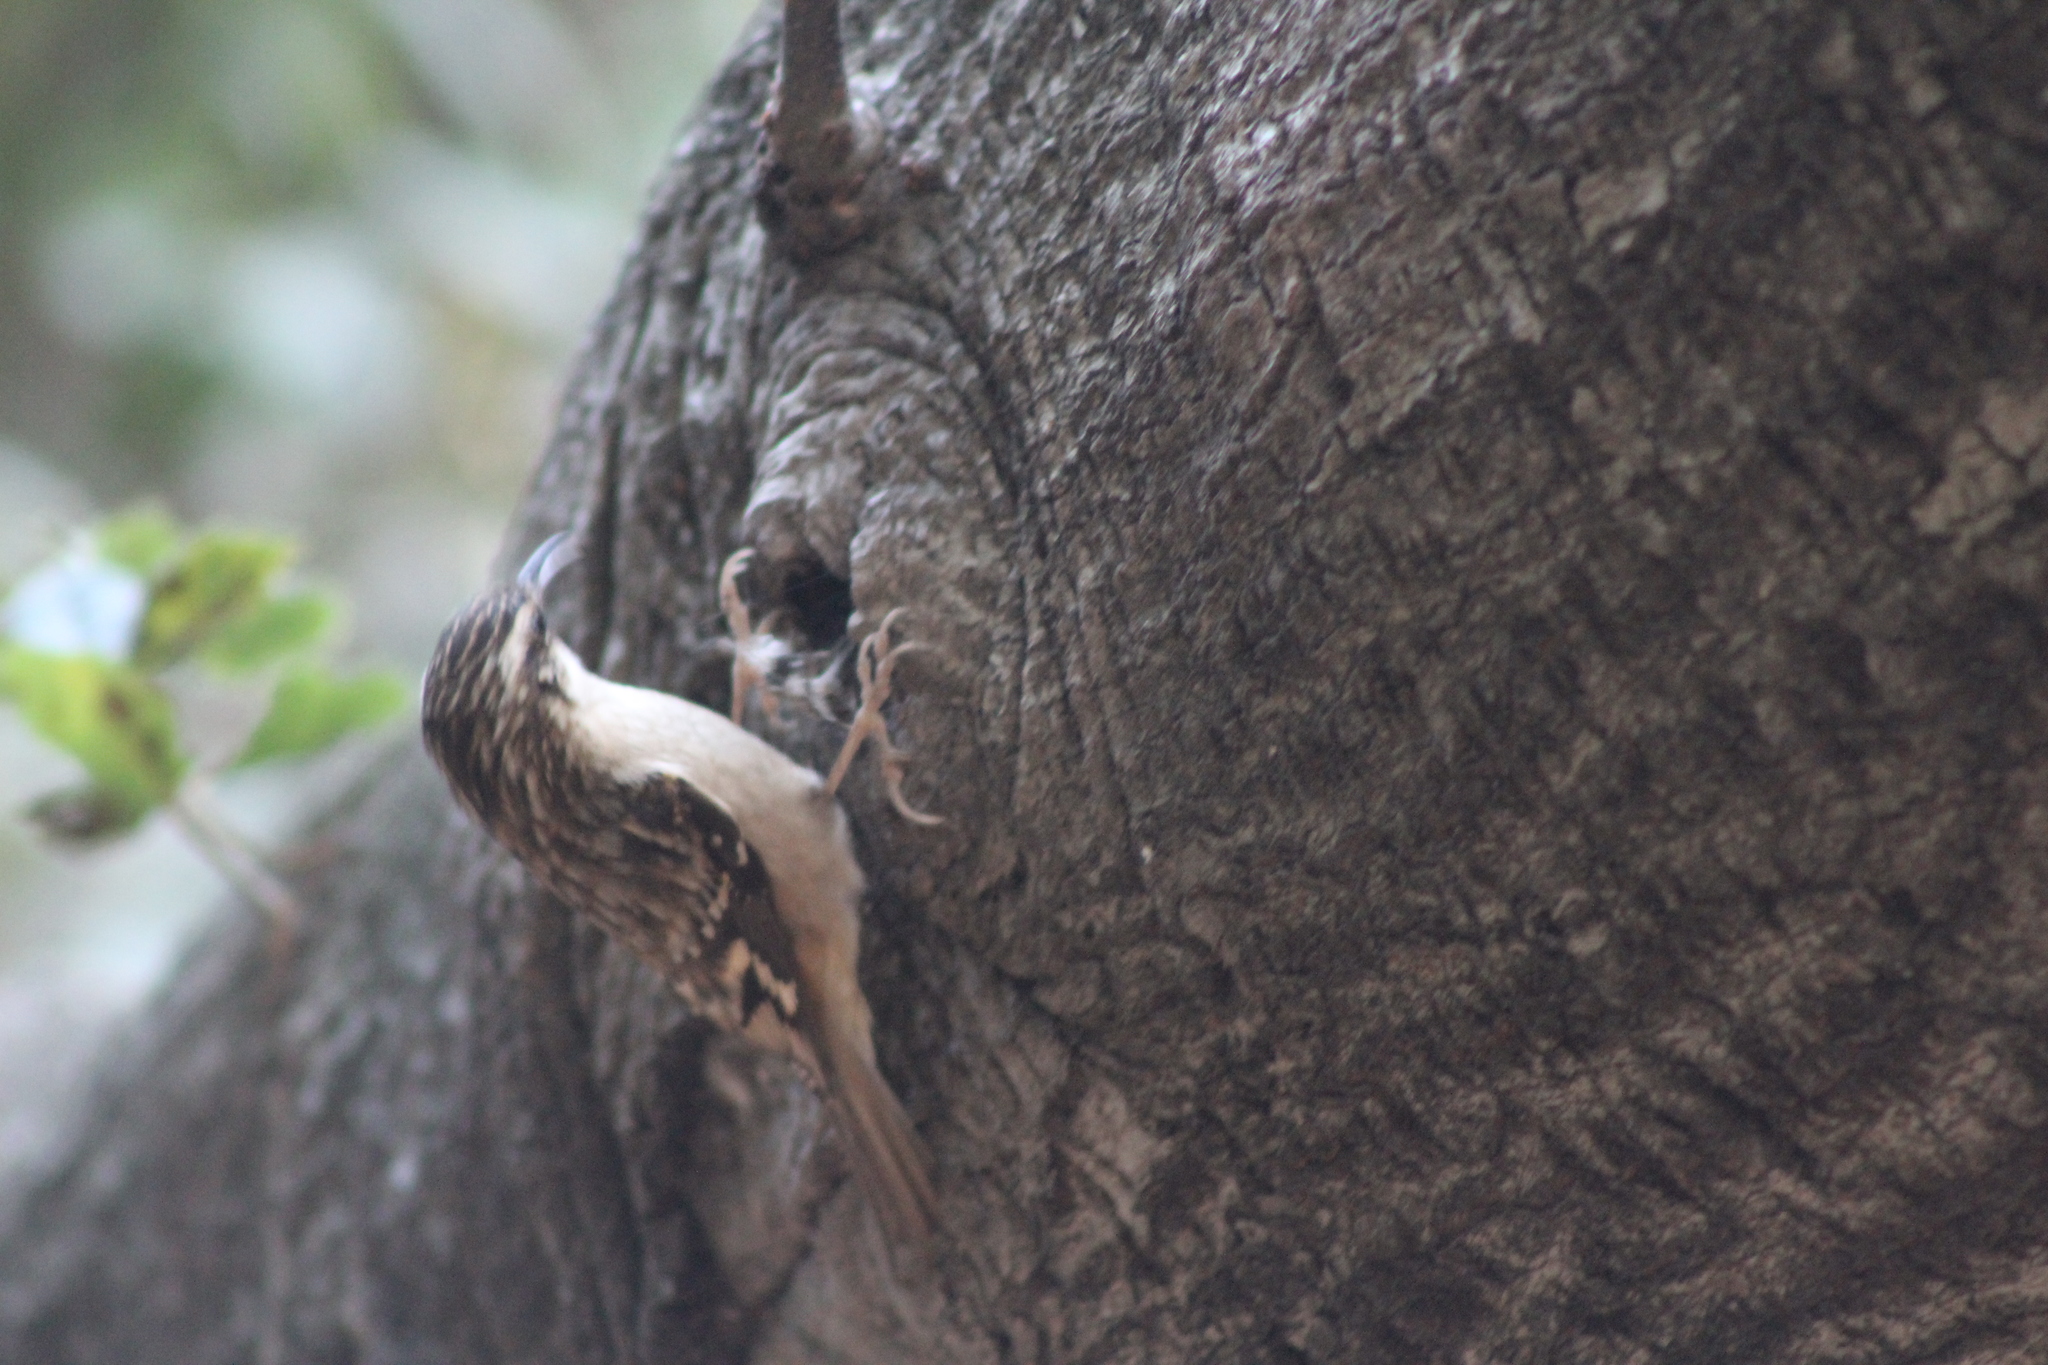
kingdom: Animalia
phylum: Chordata
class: Aves
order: Passeriformes
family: Certhiidae
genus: Certhia
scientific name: Certhia americana
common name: Brown creeper
